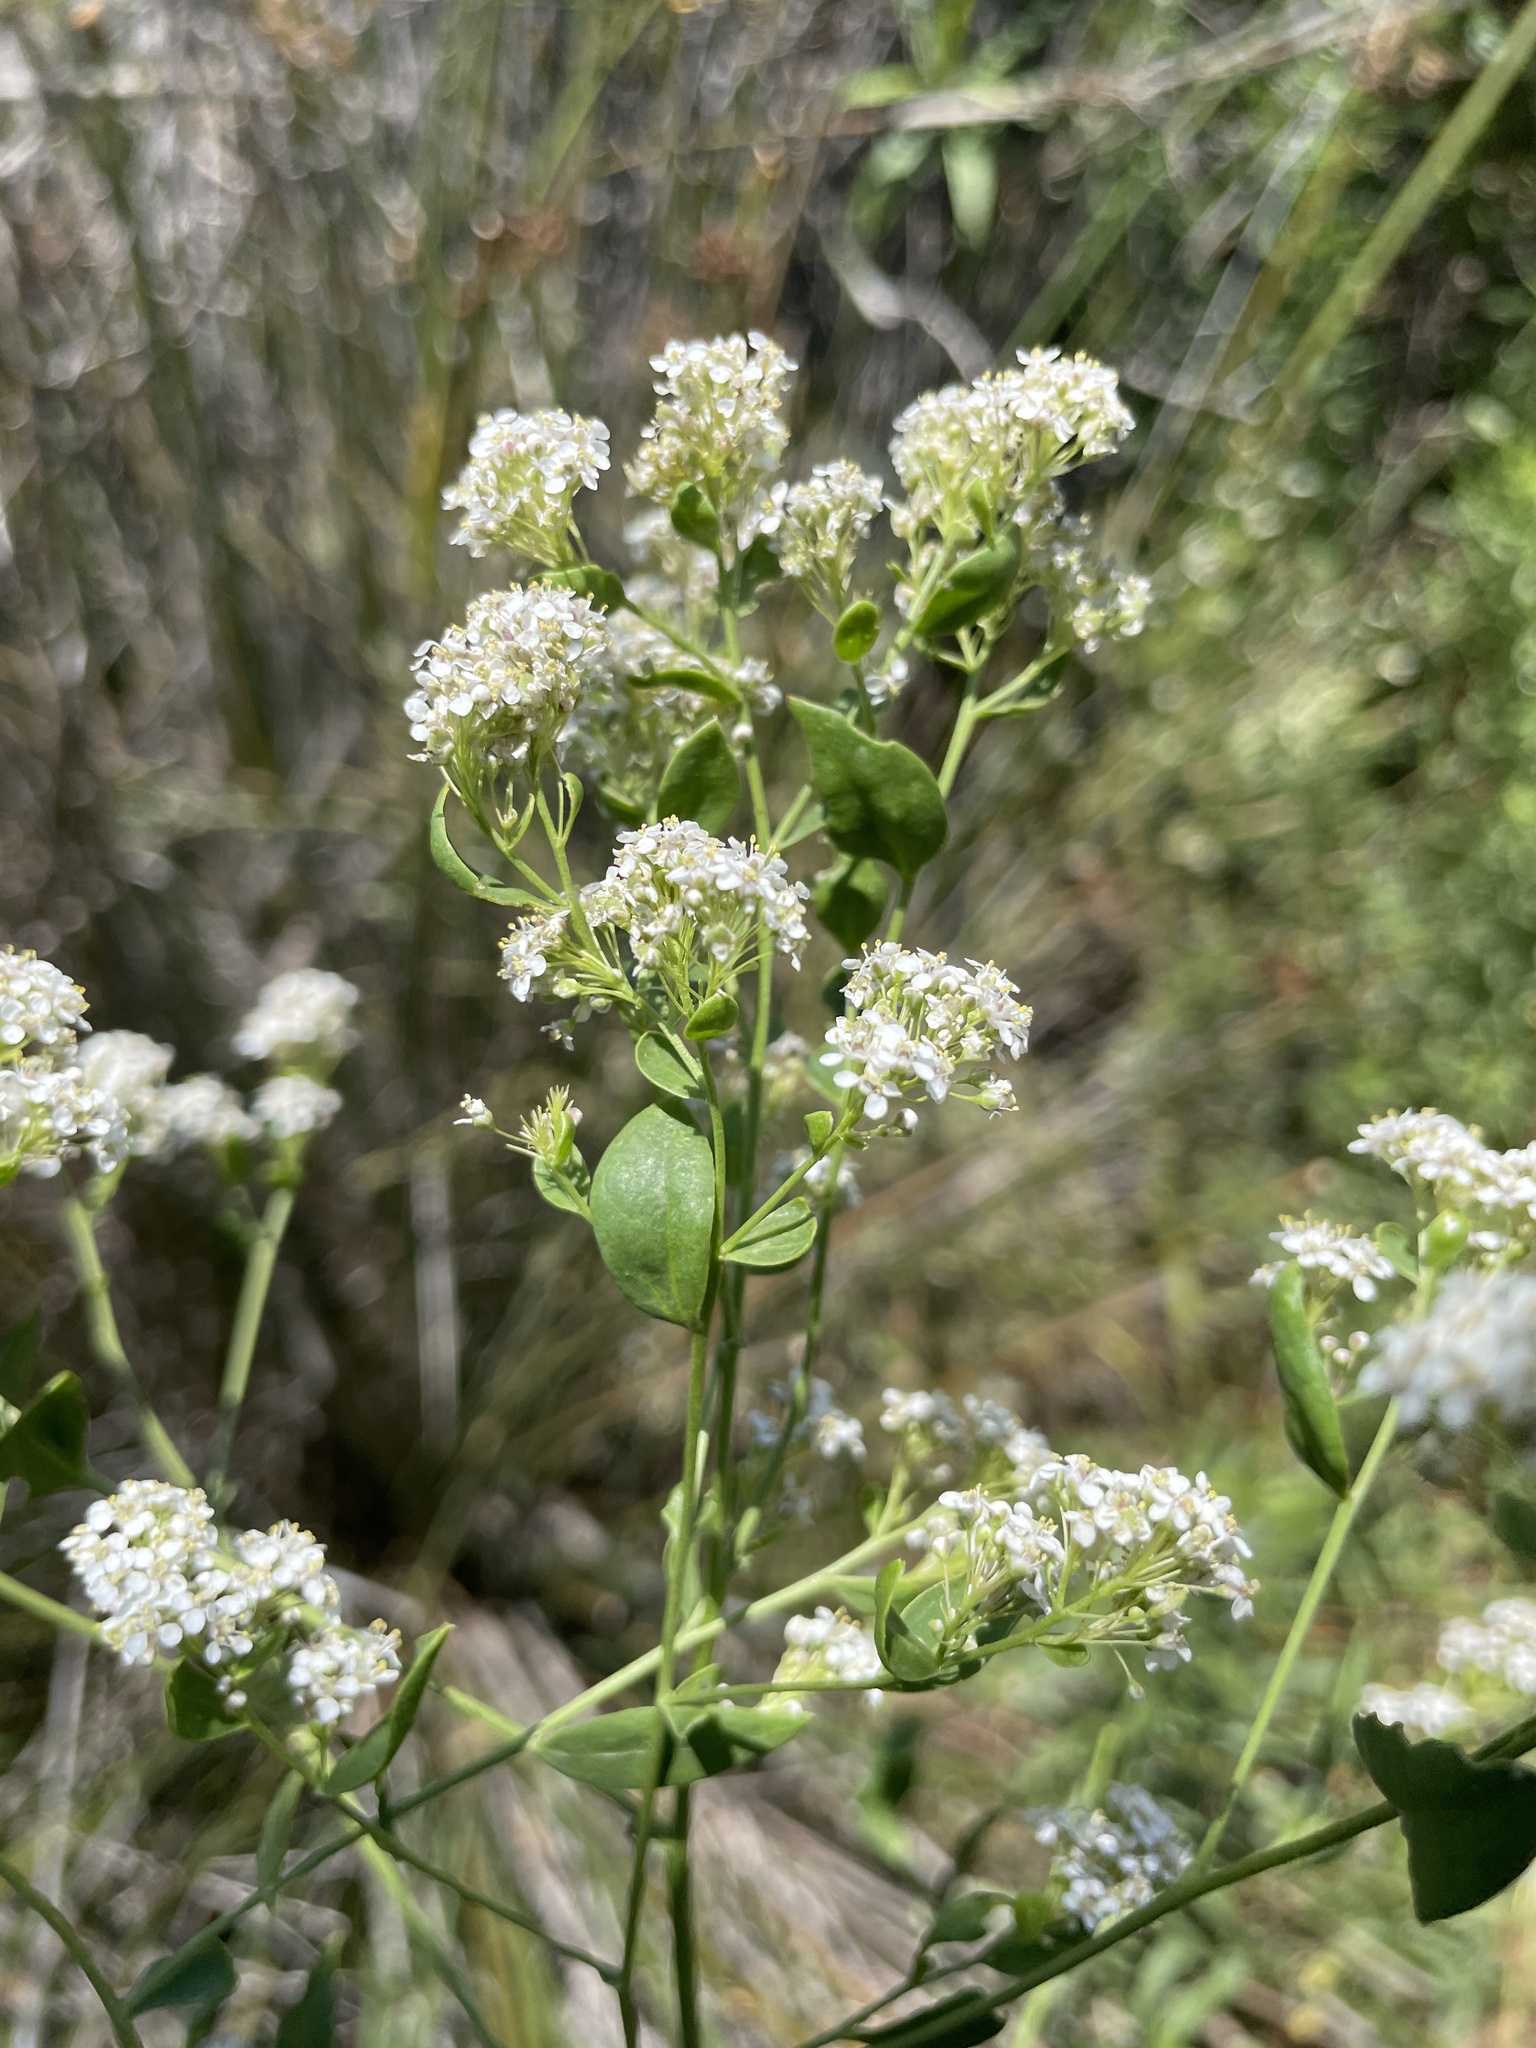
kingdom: Plantae
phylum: Tracheophyta
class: Magnoliopsida
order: Brassicales
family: Brassicaceae
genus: Lepidium
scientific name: Lepidium latifolium
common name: Dittander
